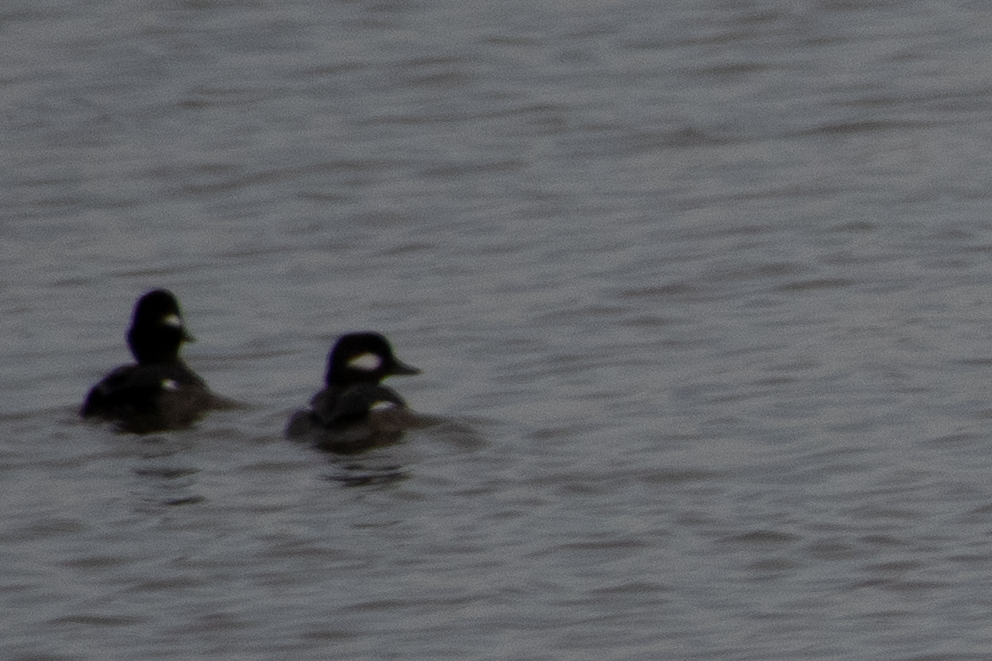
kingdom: Animalia
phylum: Chordata
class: Aves
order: Anseriformes
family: Anatidae
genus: Bucephala
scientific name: Bucephala albeola
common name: Bufflehead
